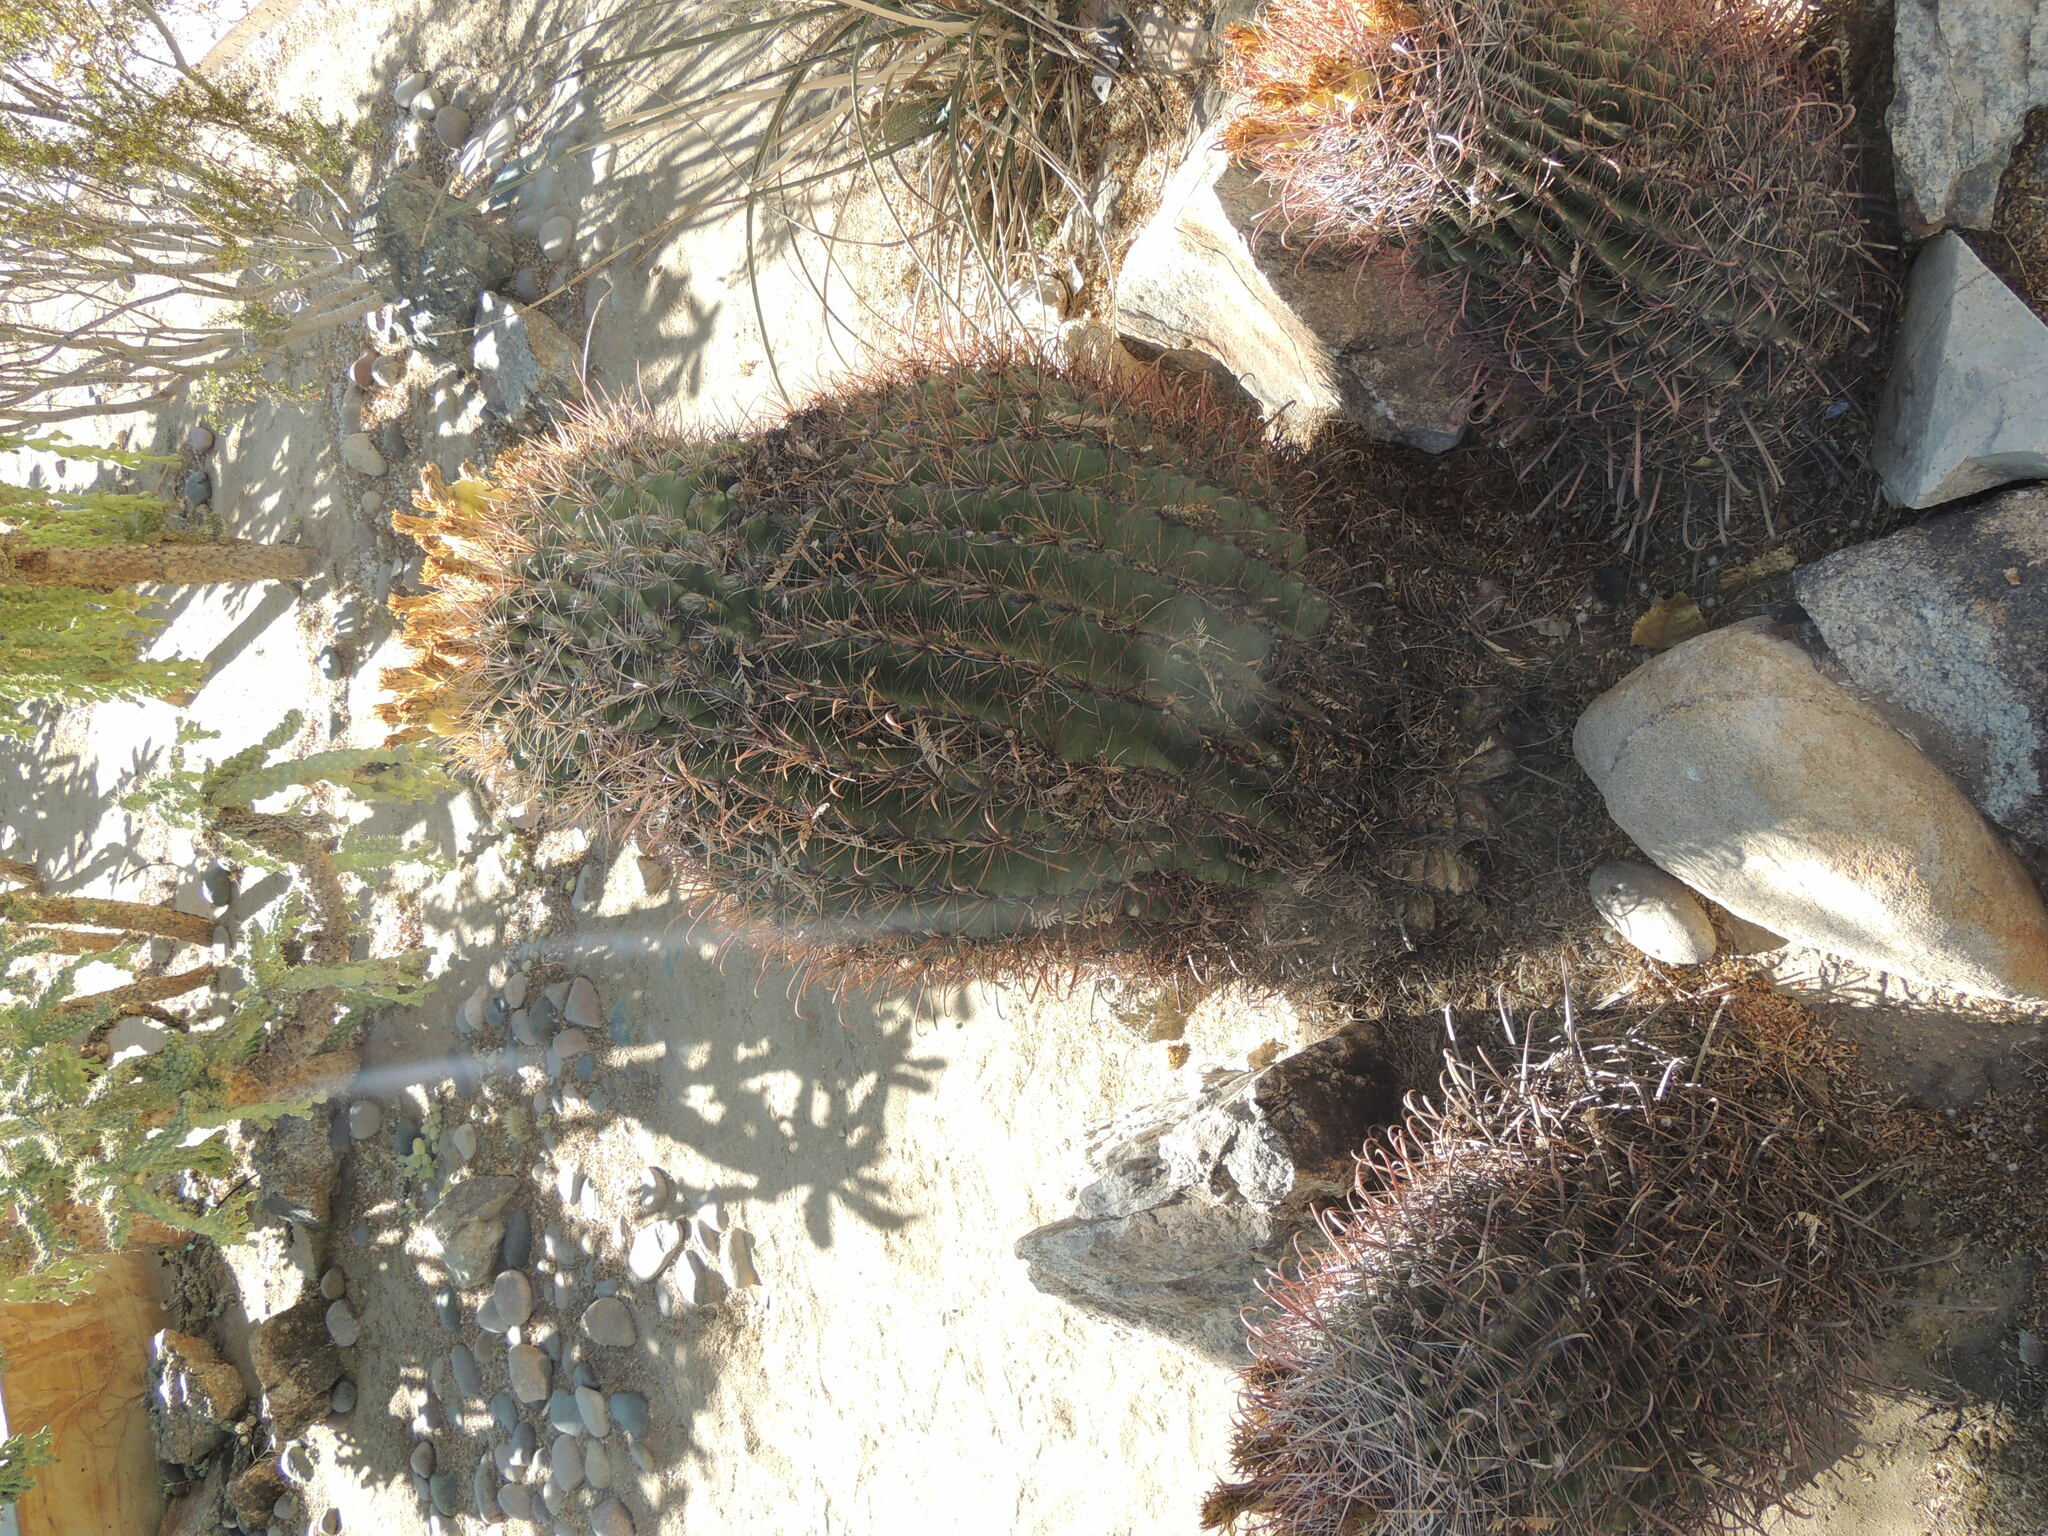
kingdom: Plantae
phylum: Tracheophyta
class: Magnoliopsida
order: Caryophyllales
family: Cactaceae
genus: Ferocactus
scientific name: Ferocactus cylindraceus
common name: California barrel cactus
